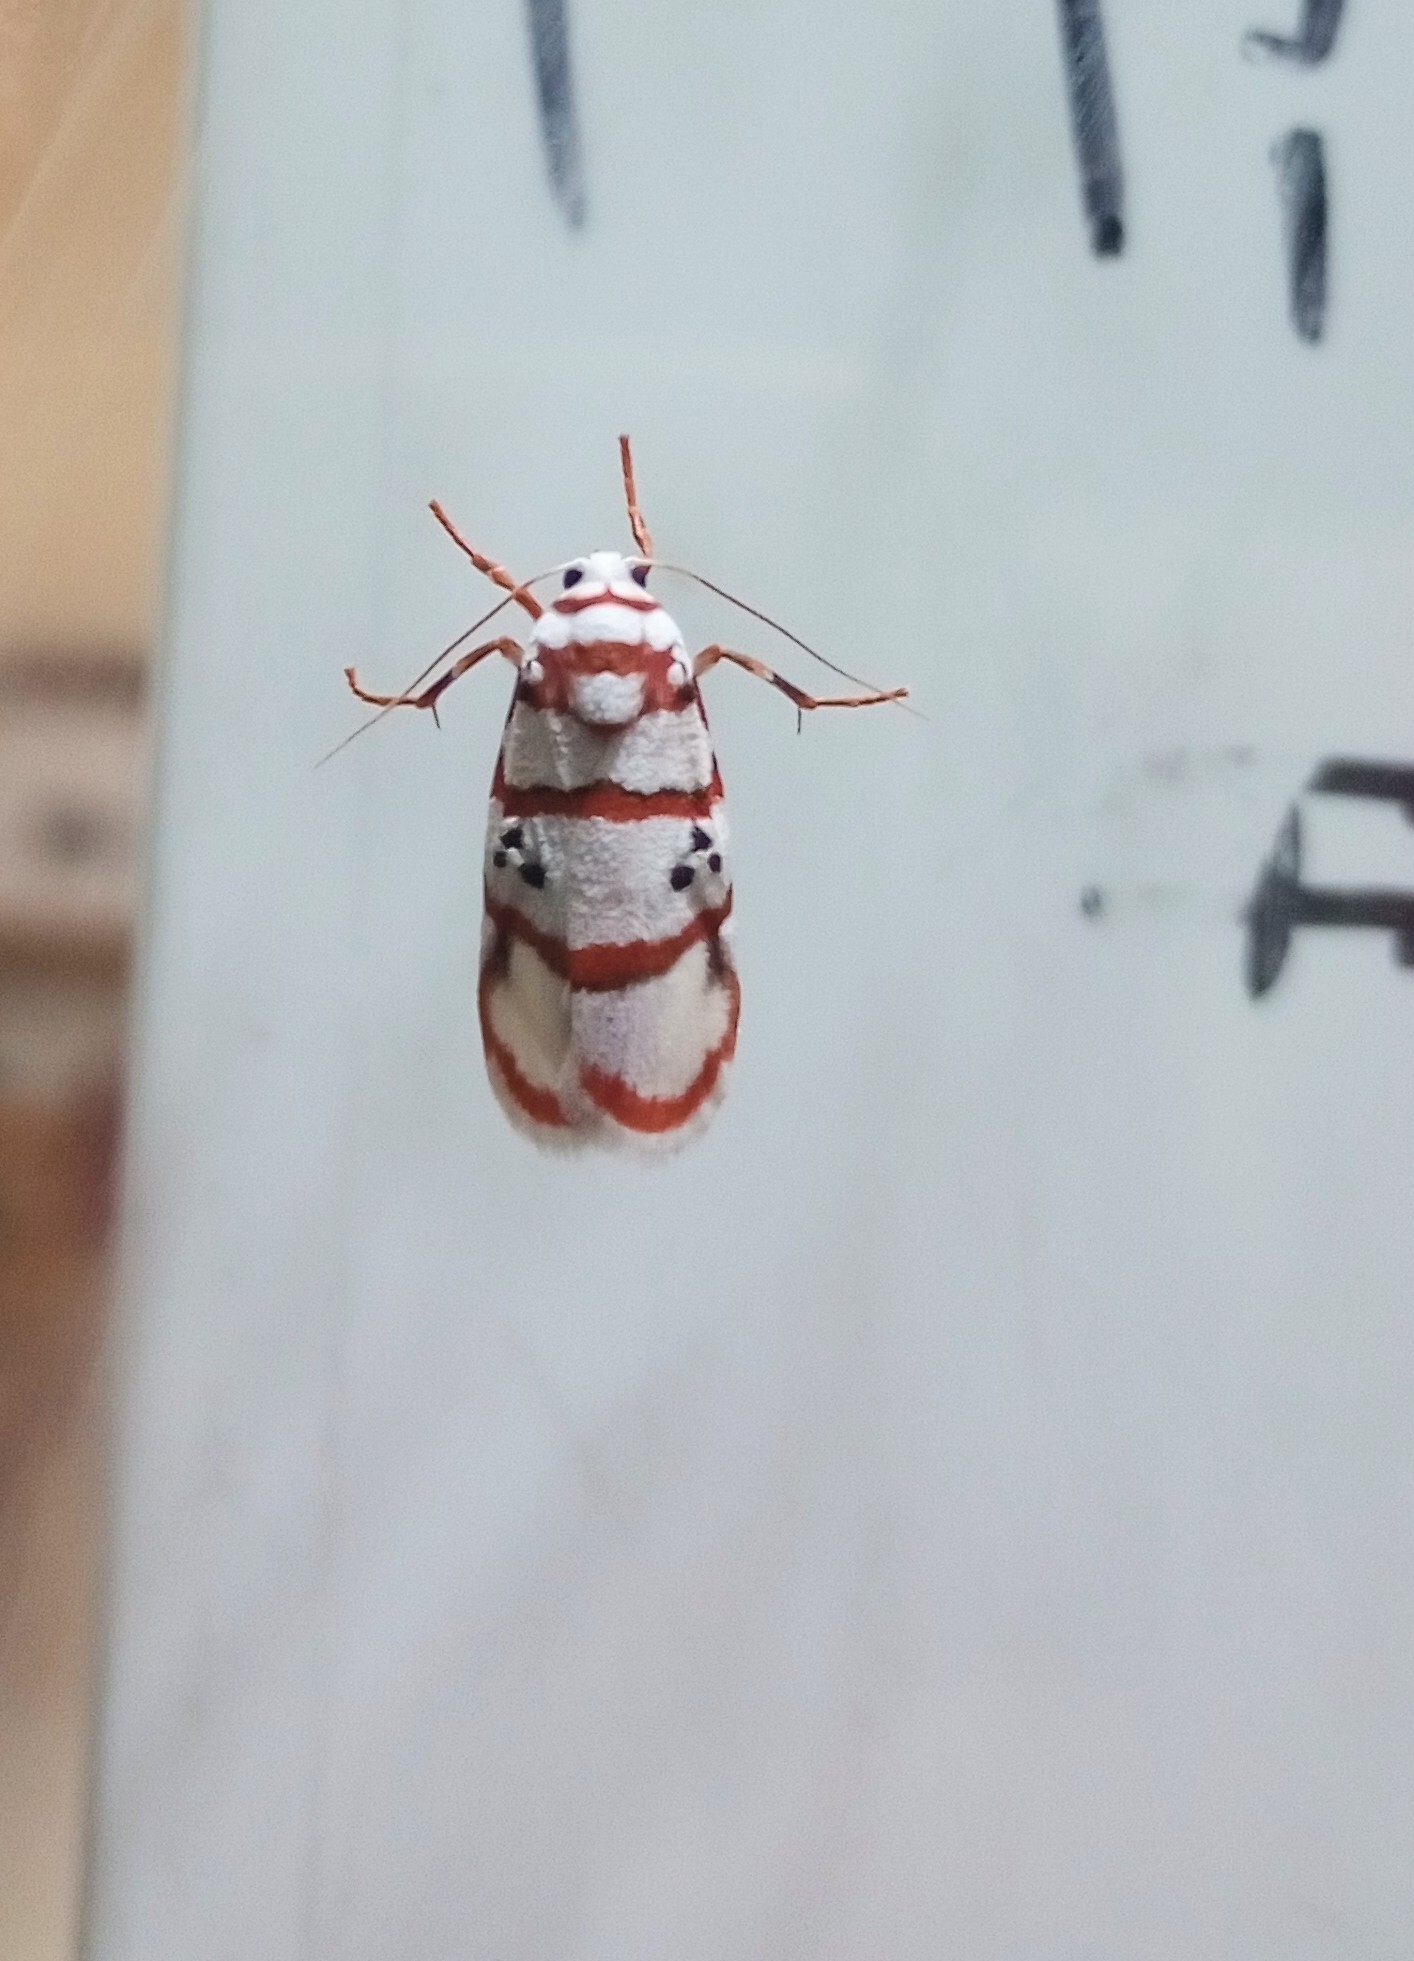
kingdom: Animalia
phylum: Arthropoda
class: Insecta
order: Lepidoptera
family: Erebidae
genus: Cyana
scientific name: Cyana peregrina
